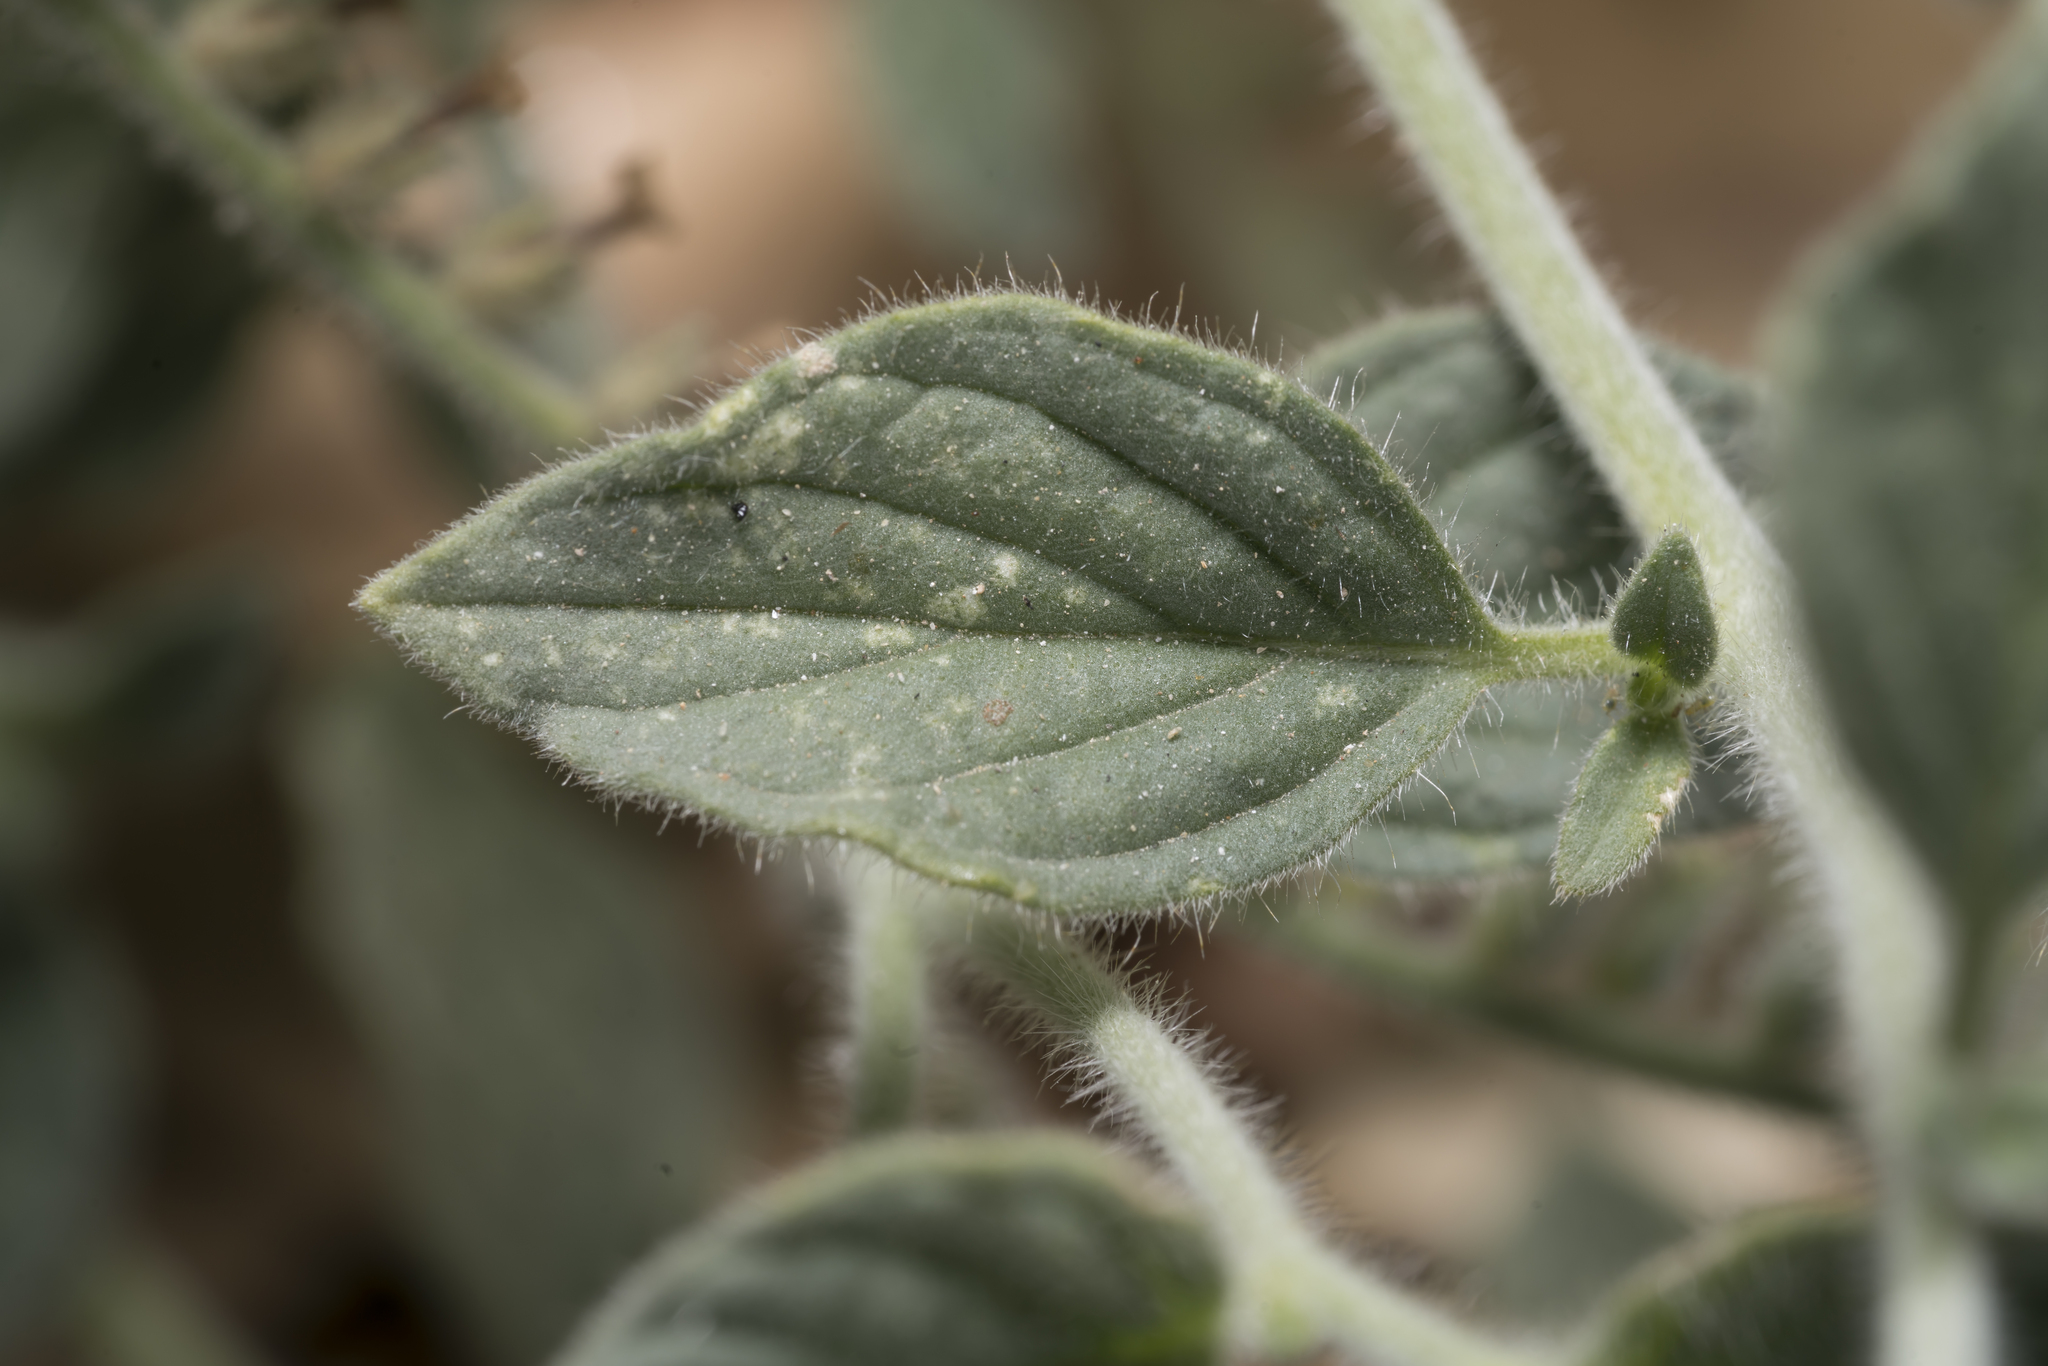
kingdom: Plantae
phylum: Tracheophyta
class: Magnoliopsida
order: Boraginales
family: Heliotropiaceae
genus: Heliotropium
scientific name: Heliotropium hirsutissimum
